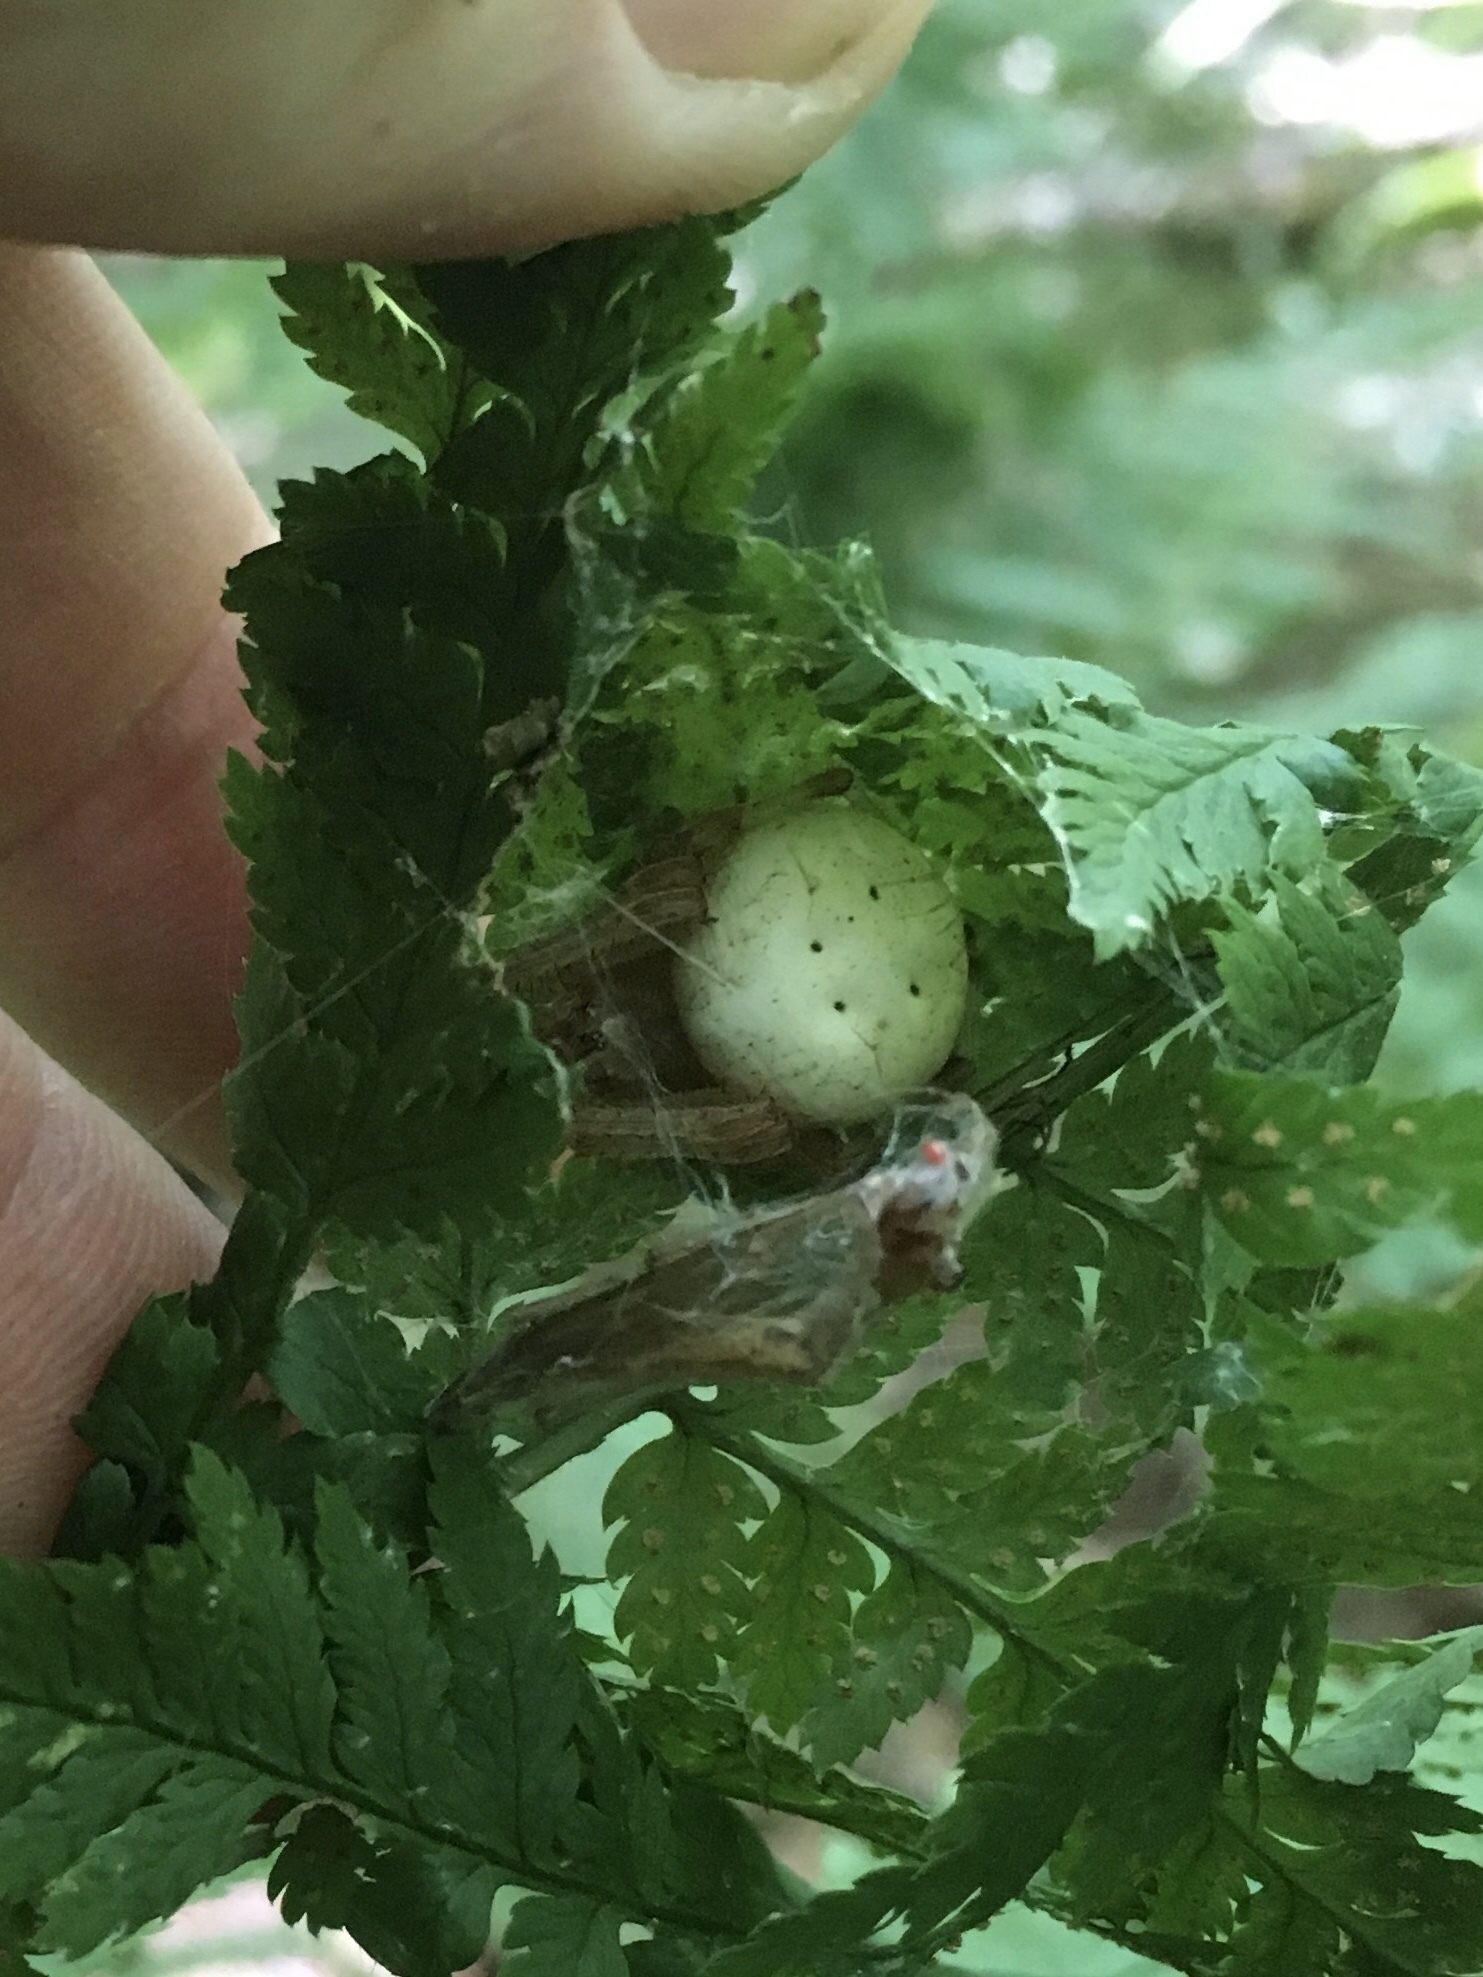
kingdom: Animalia
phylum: Arthropoda
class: Arachnida
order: Araneae
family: Araneidae
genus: Araneus
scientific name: Araneus marmoreus
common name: Marbled orbweaver
